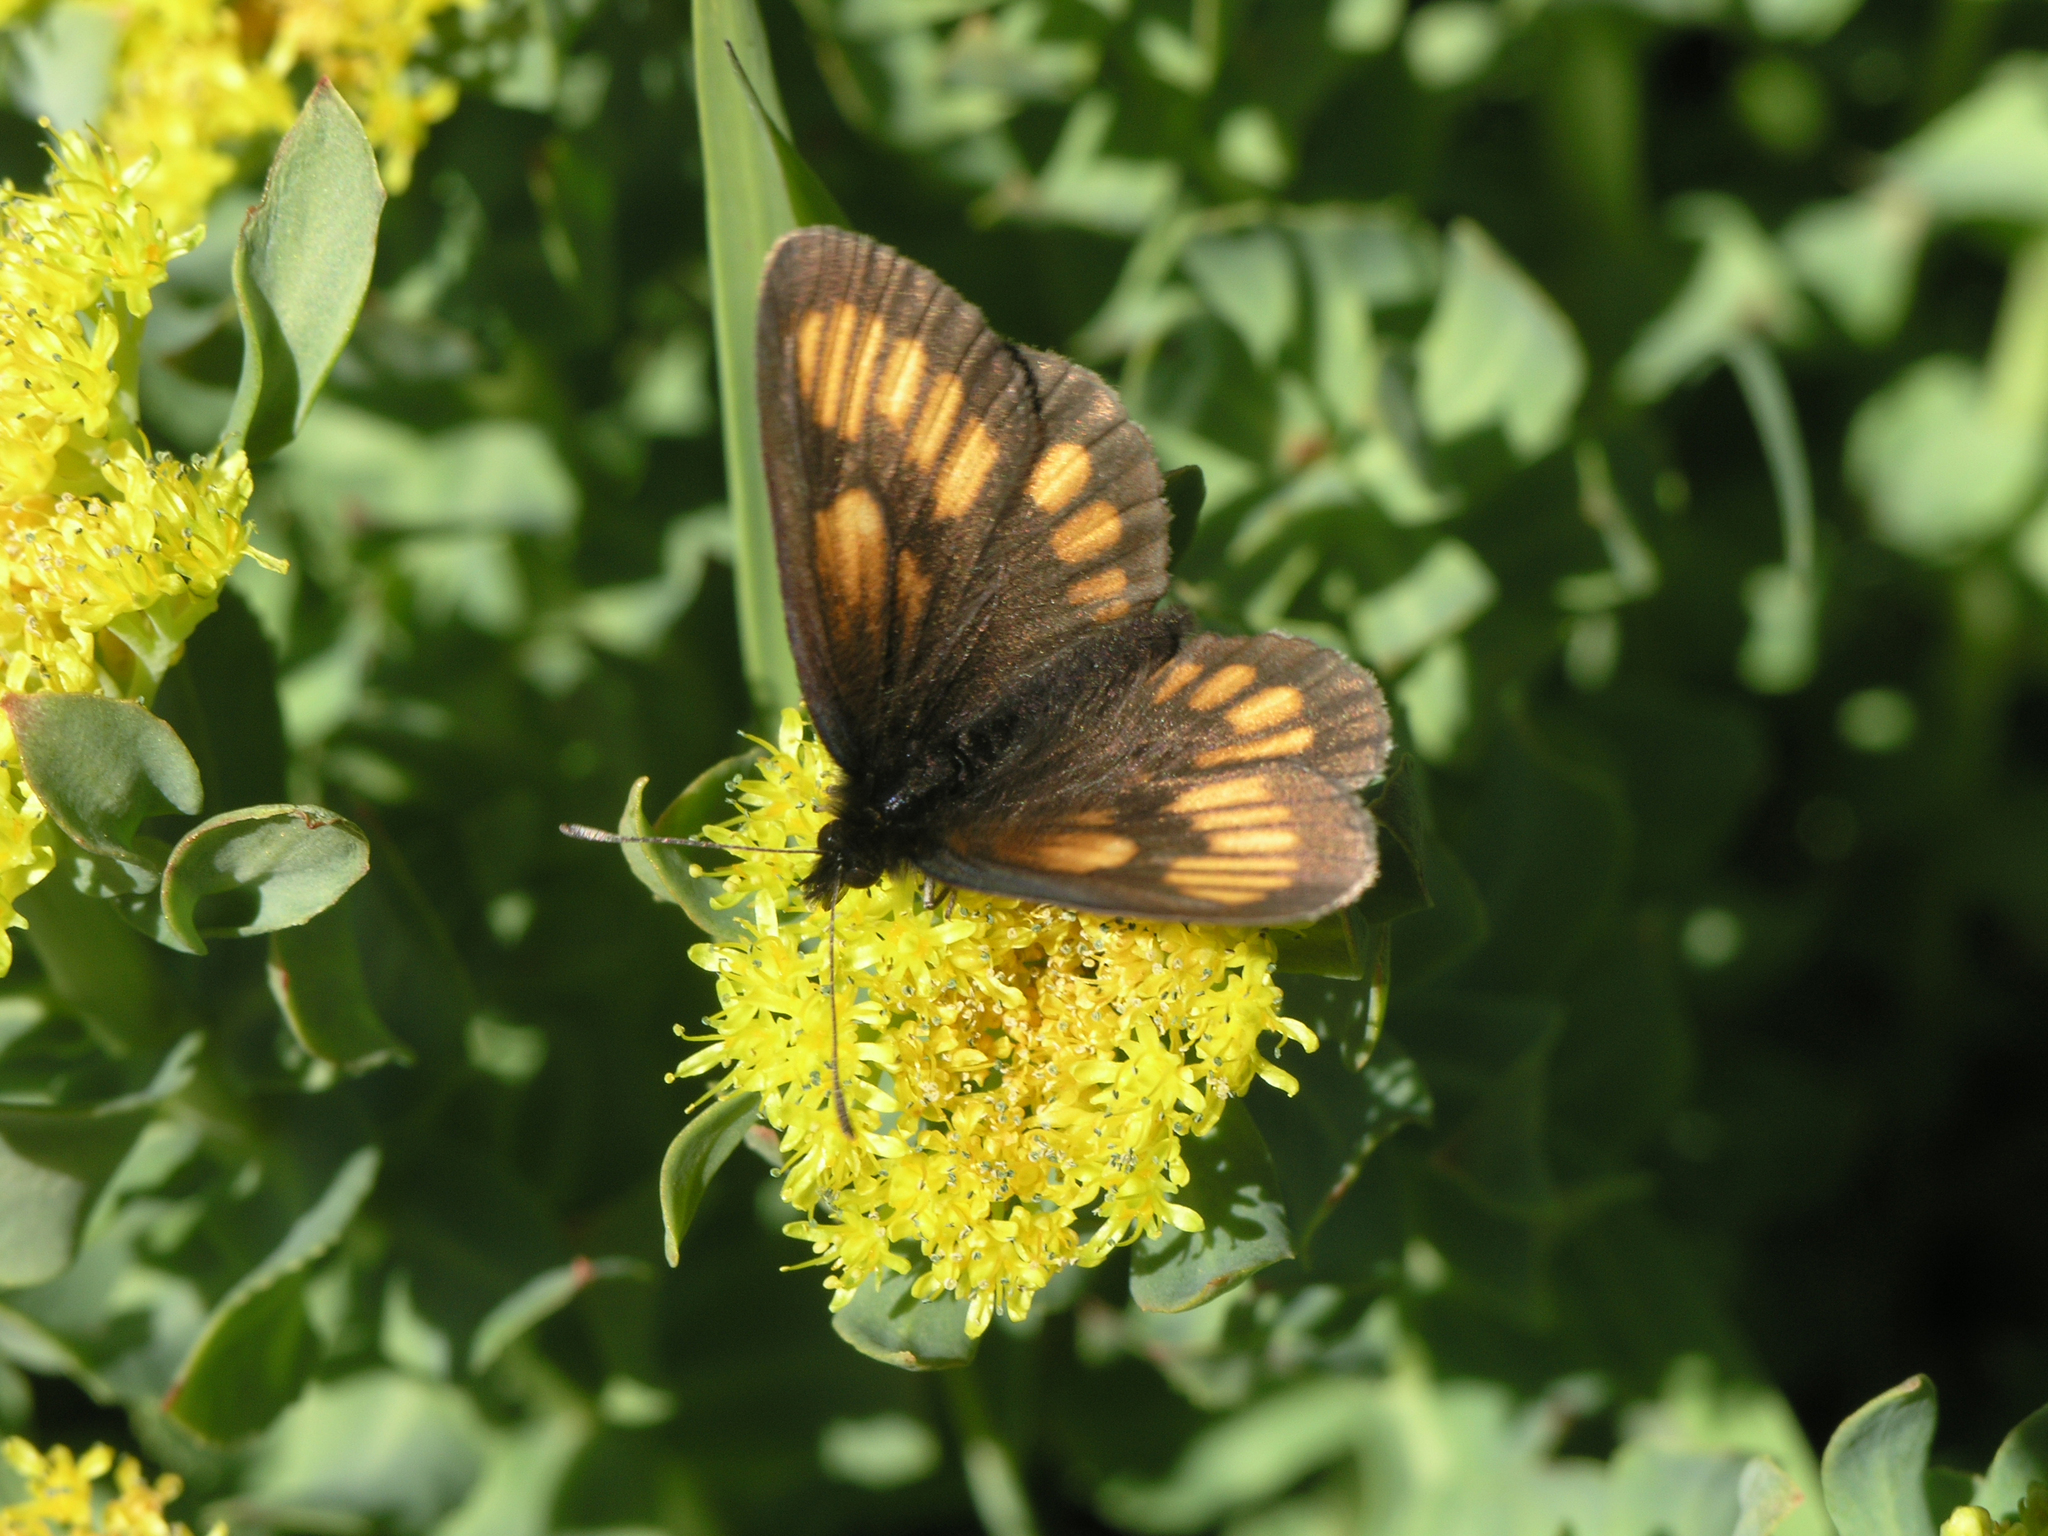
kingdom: Plantae
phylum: Tracheophyta
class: Magnoliopsida
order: Saxifragales
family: Crassulaceae
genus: Rhodiola
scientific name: Rhodiola rosea
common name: Roseroot
